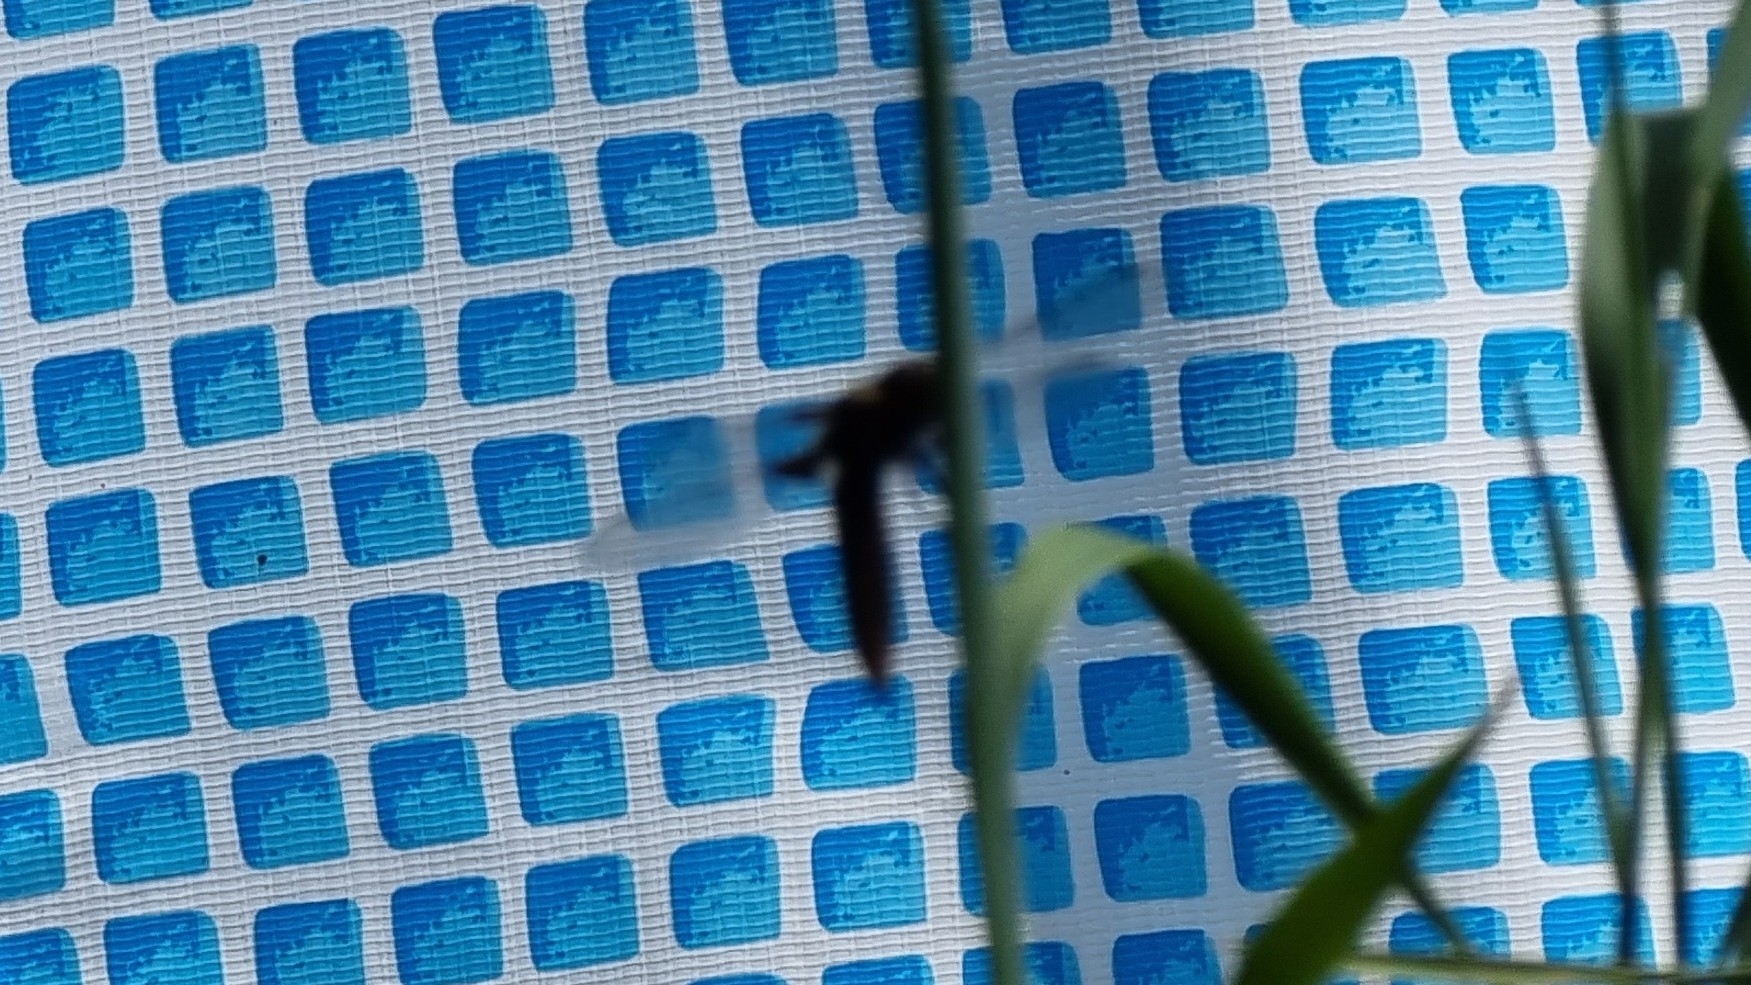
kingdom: Animalia
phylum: Arthropoda
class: Insecta
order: Odonata
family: Libellulidae
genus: Libellula
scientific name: Libellula depressa
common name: Broad-bodied chaser
